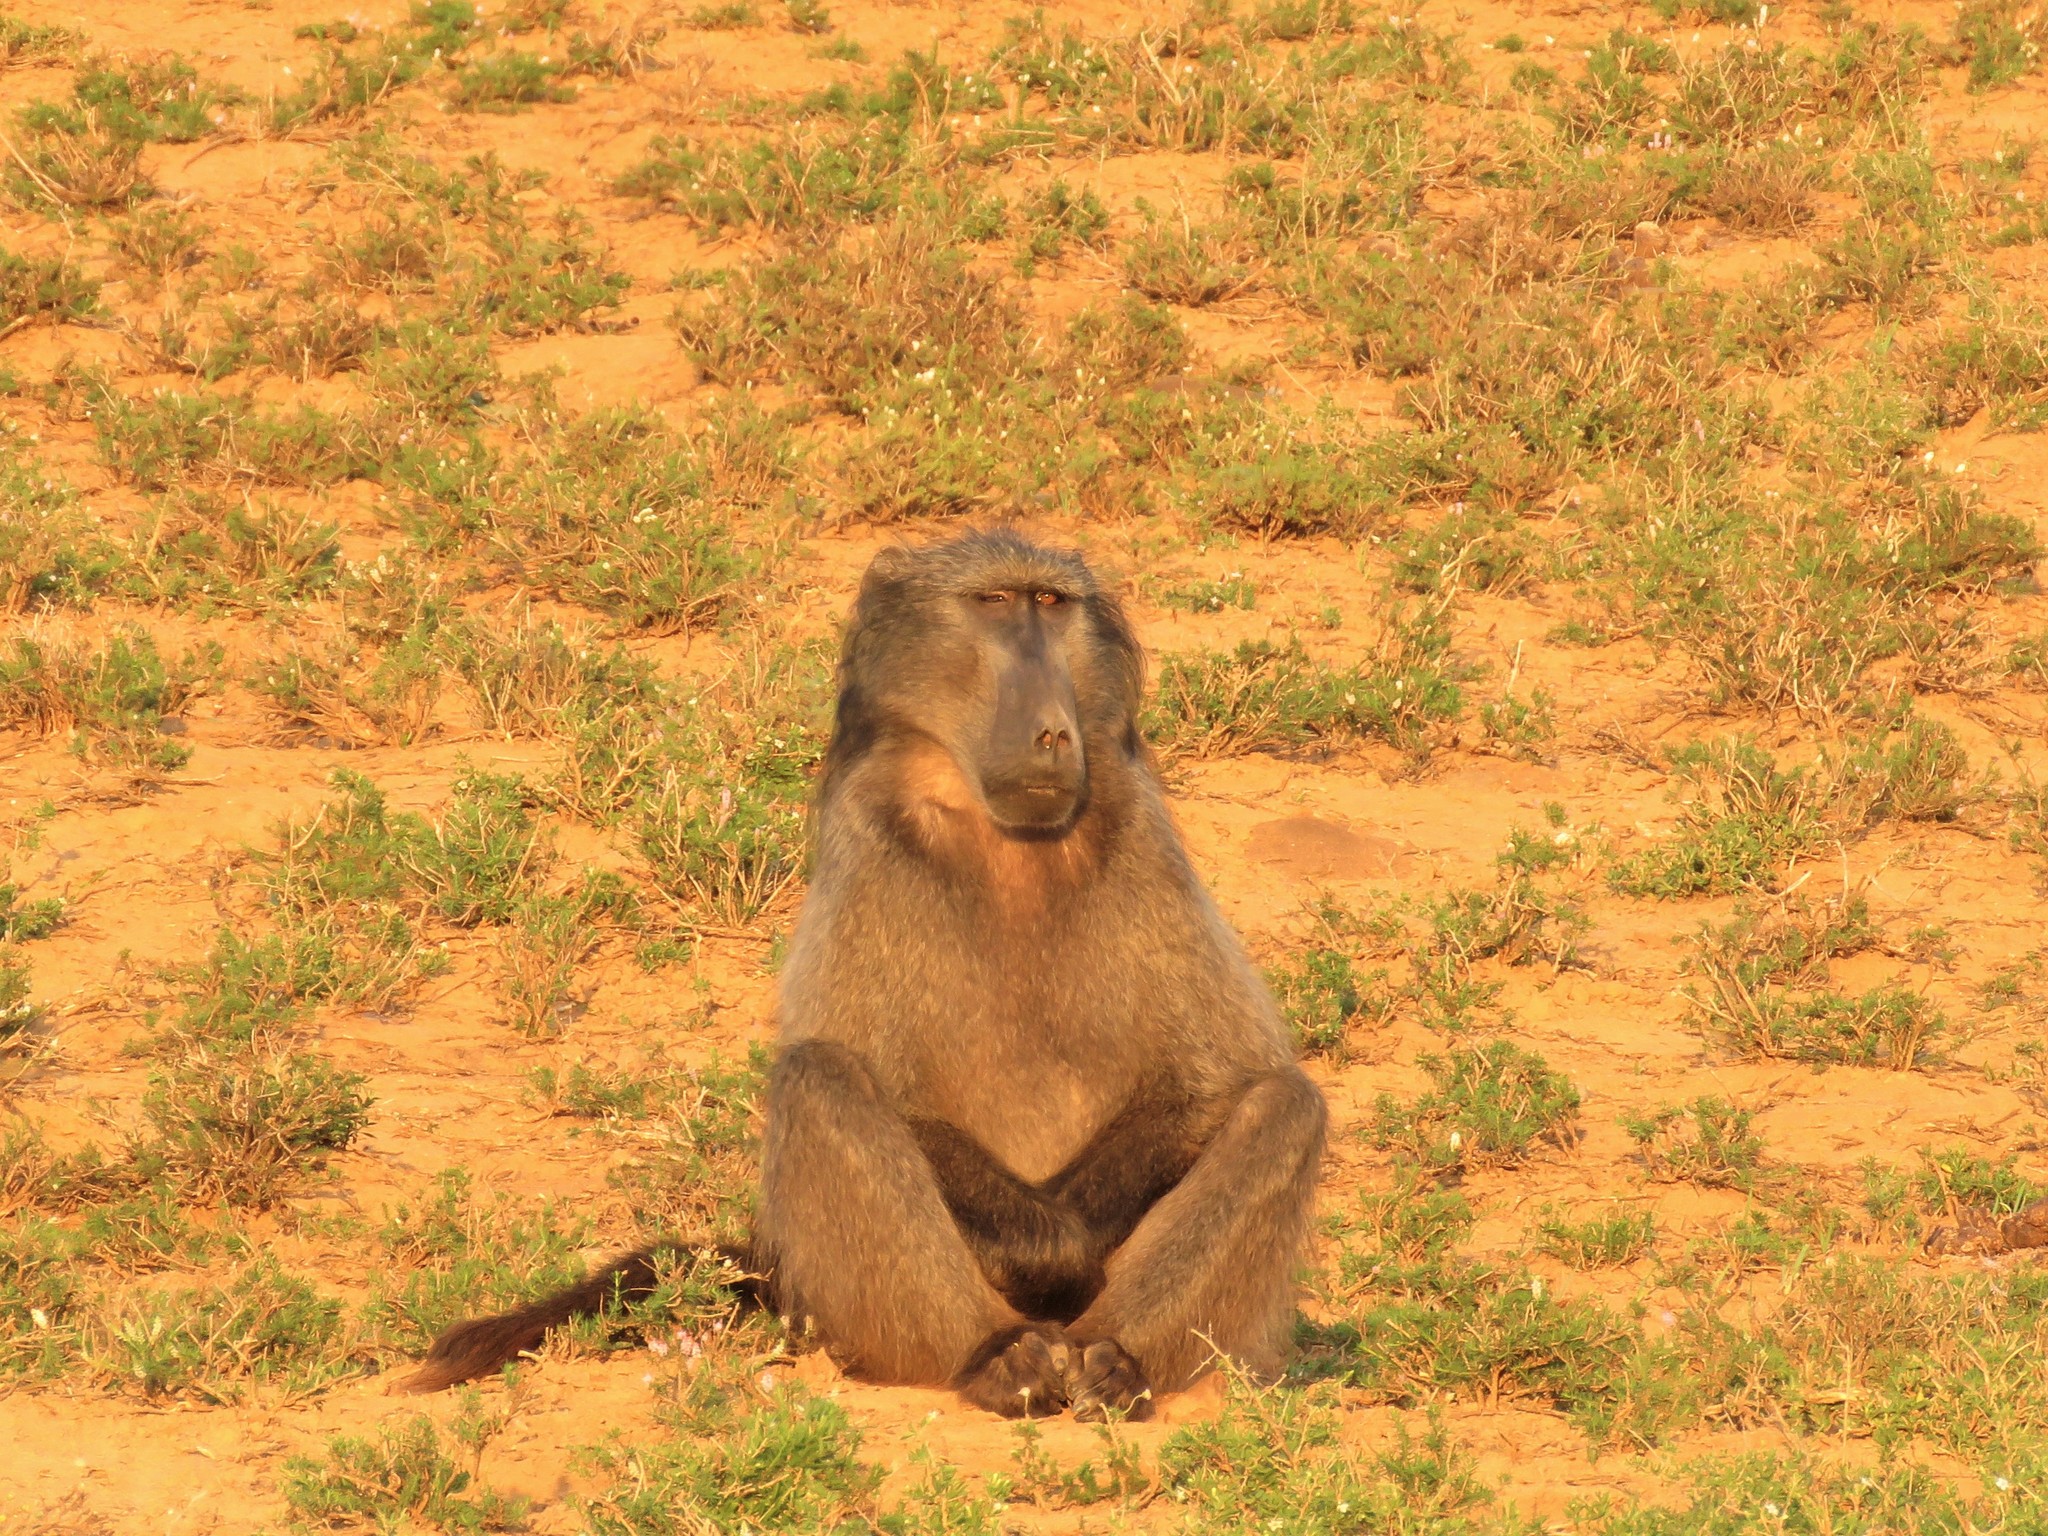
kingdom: Animalia
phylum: Chordata
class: Mammalia
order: Primates
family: Cercopithecidae
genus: Papio
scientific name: Papio ursinus
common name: Chacma baboon
